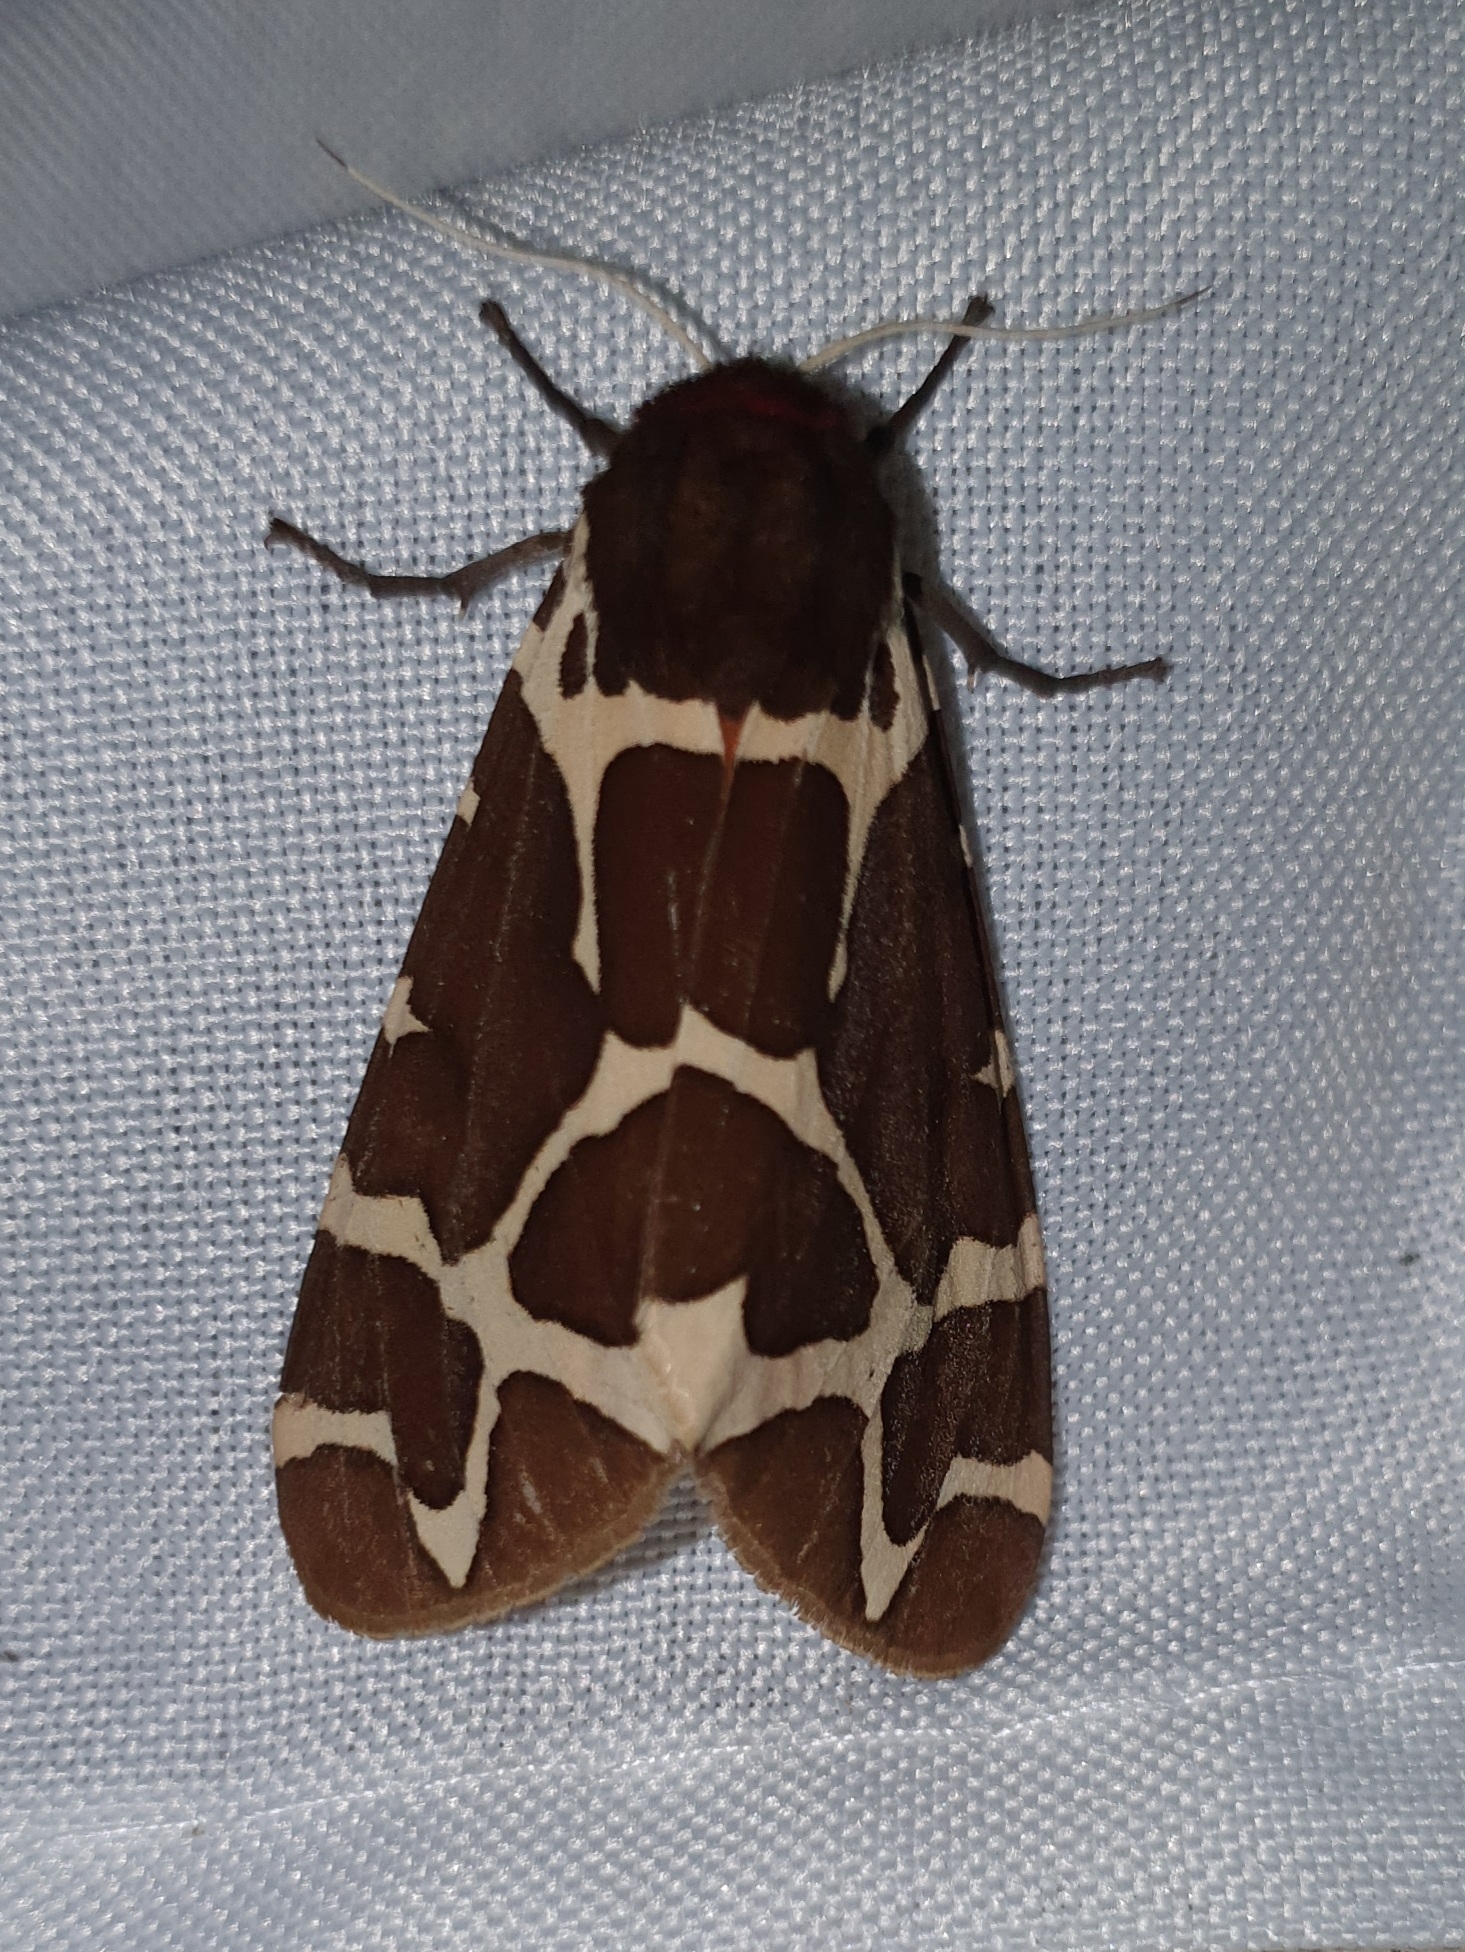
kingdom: Animalia
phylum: Arthropoda
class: Insecta
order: Lepidoptera
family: Erebidae
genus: Arctia
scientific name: Arctia caja
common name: Garden tiger
